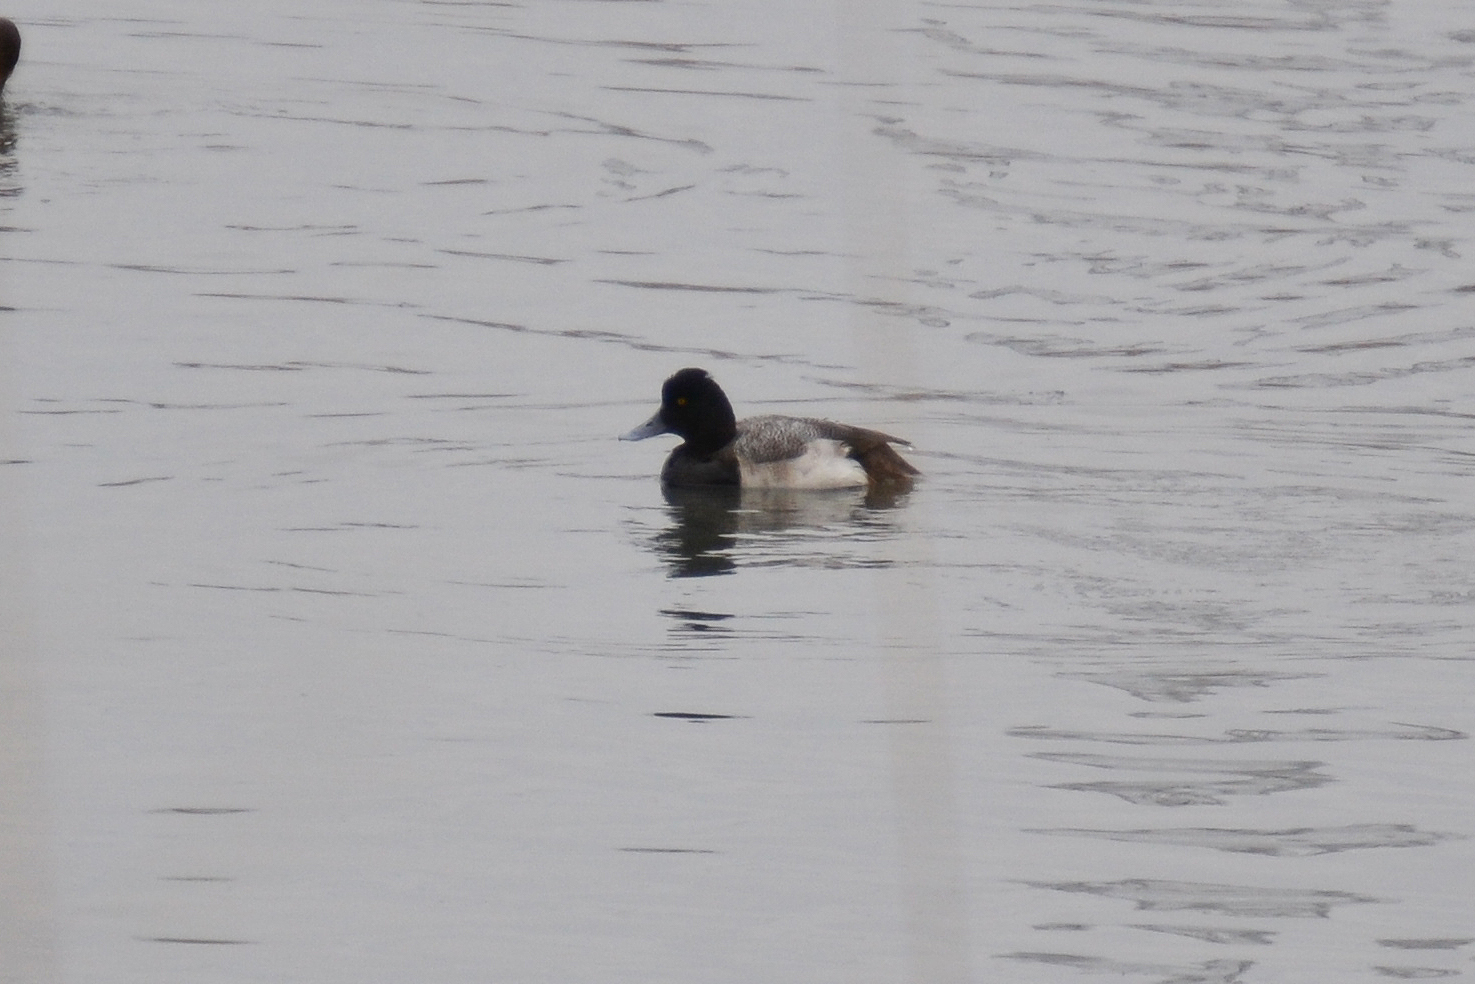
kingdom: Animalia
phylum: Chordata
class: Aves
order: Anseriformes
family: Anatidae
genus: Aythya
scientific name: Aythya affinis
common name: Lesser scaup
